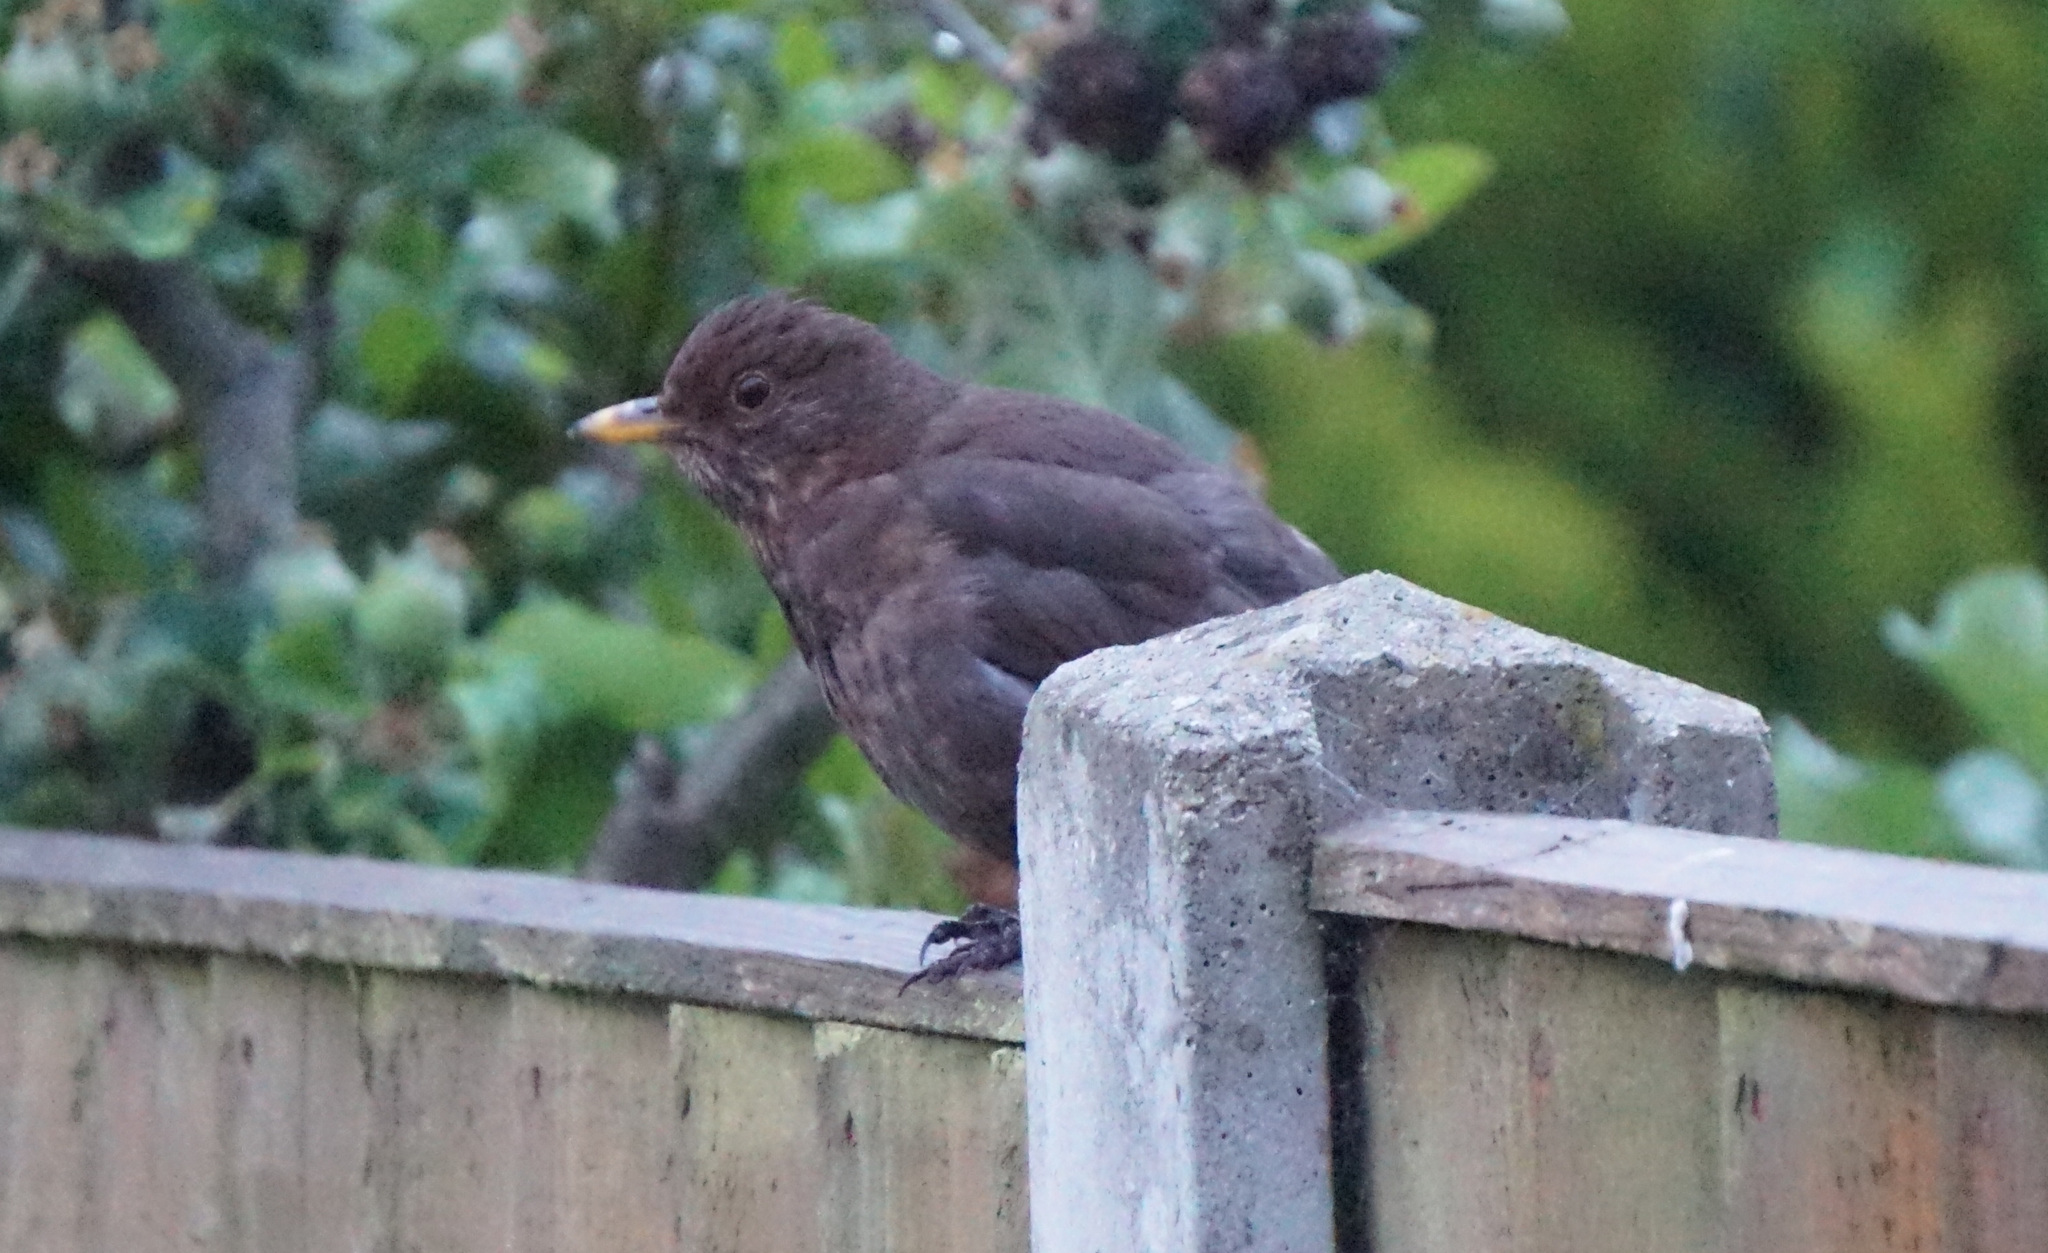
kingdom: Animalia
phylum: Chordata
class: Aves
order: Passeriformes
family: Turdidae
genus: Turdus
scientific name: Turdus merula
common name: Common blackbird
